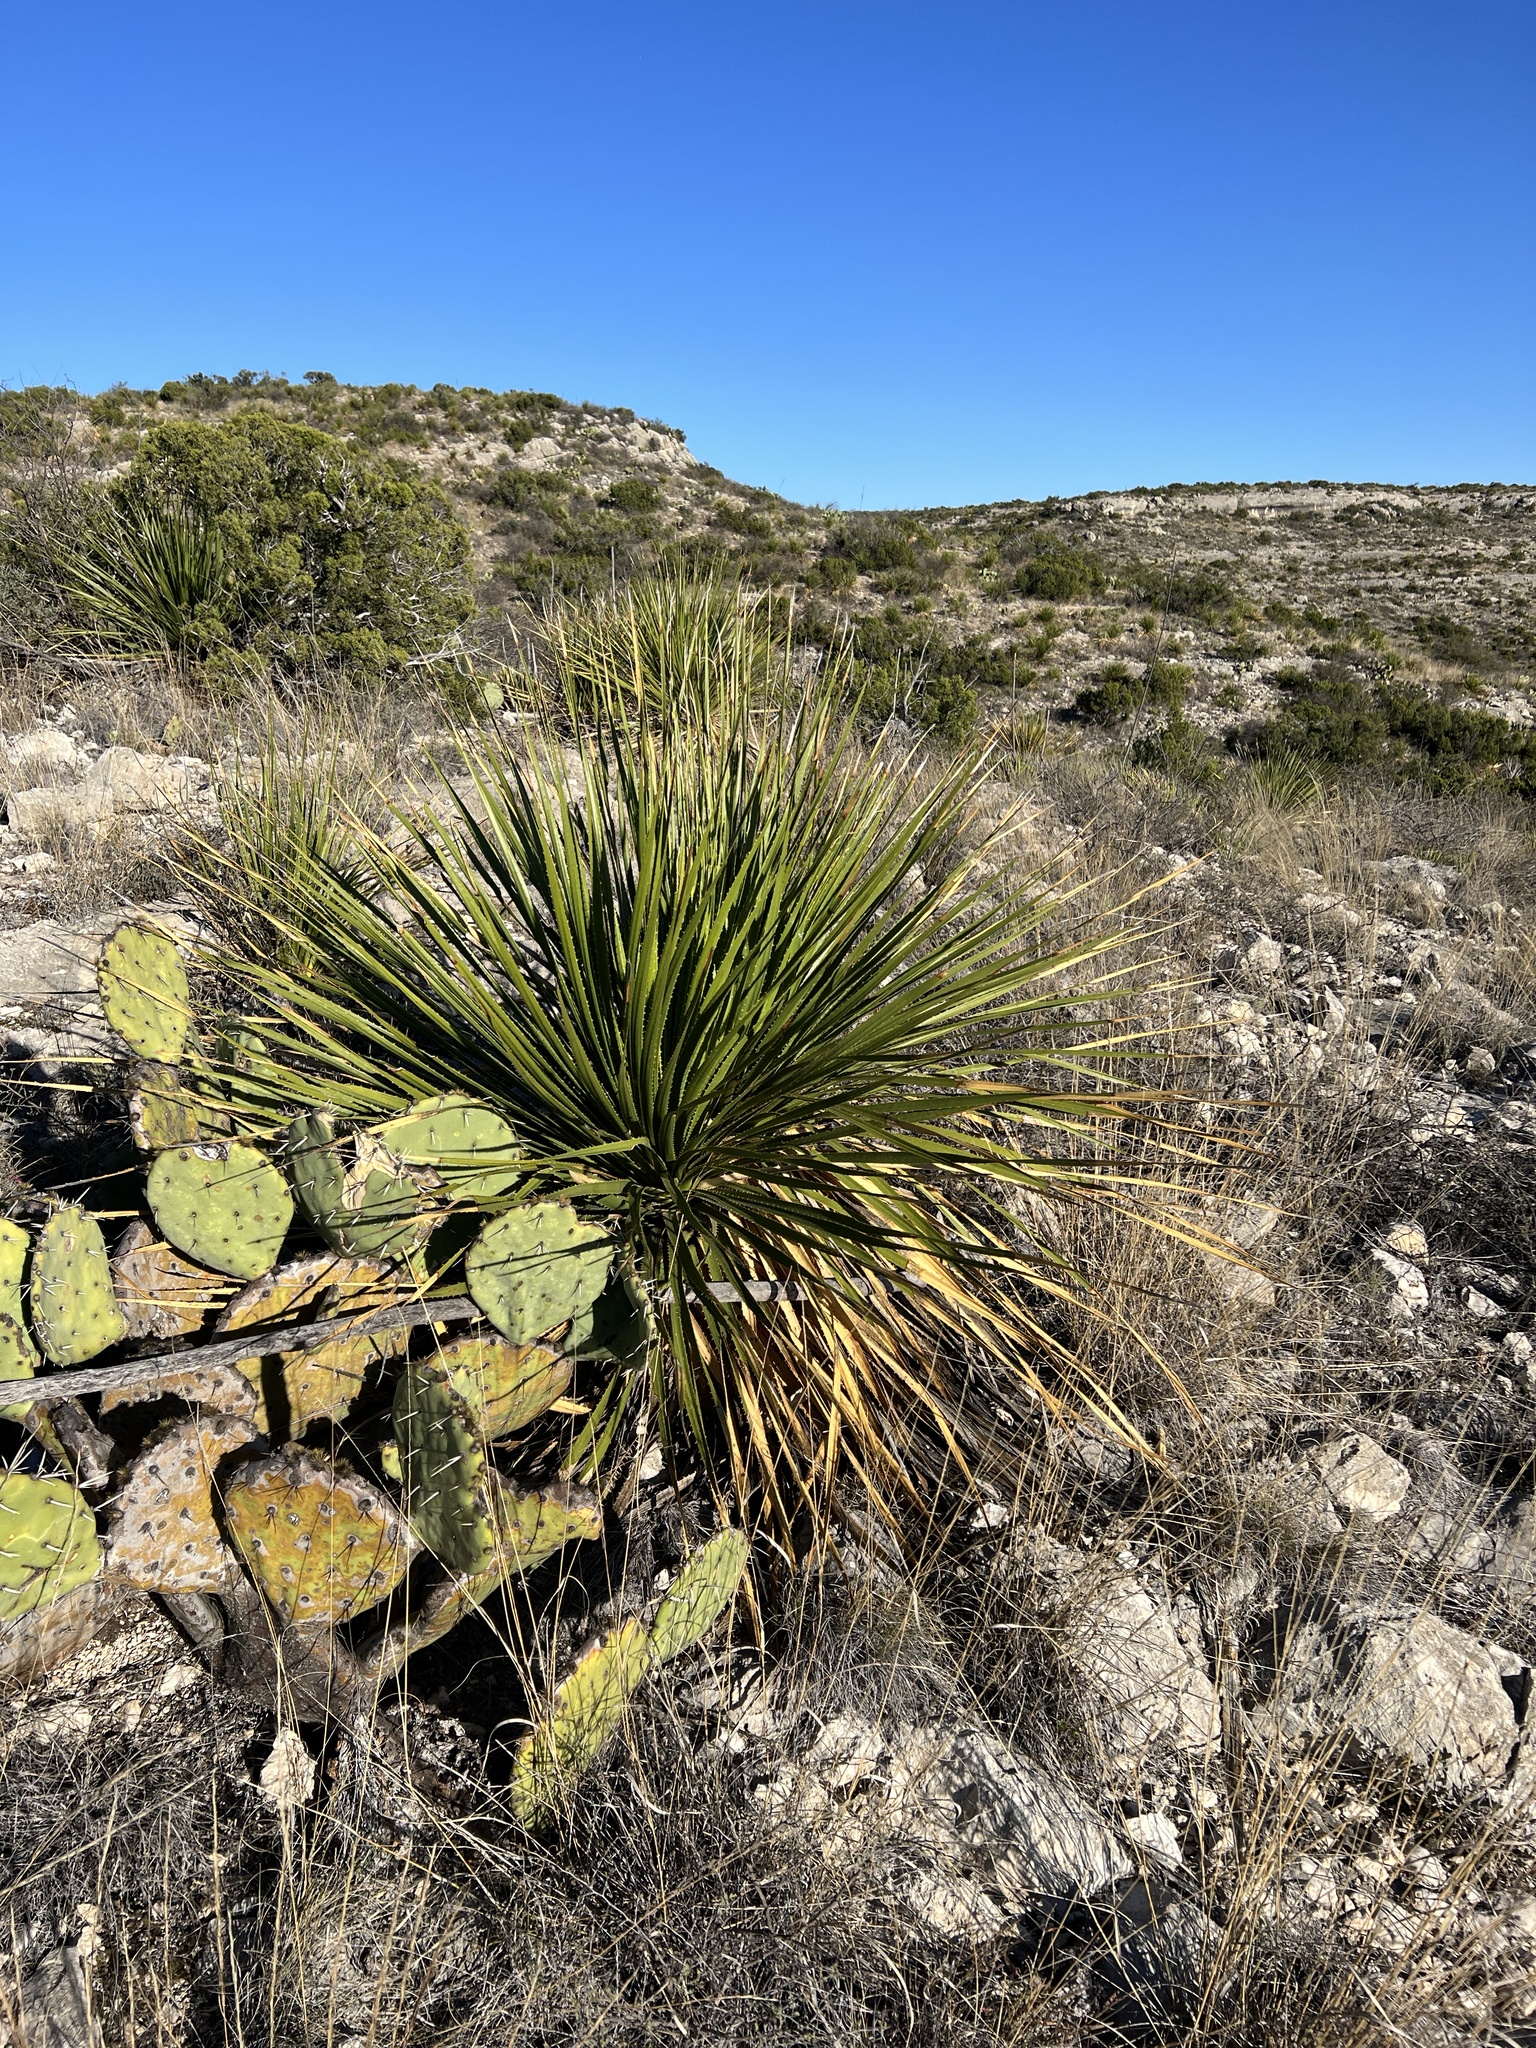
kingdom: Plantae
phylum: Tracheophyta
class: Liliopsida
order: Asparagales
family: Asparagaceae
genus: Dasylirion
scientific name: Dasylirion texanum
